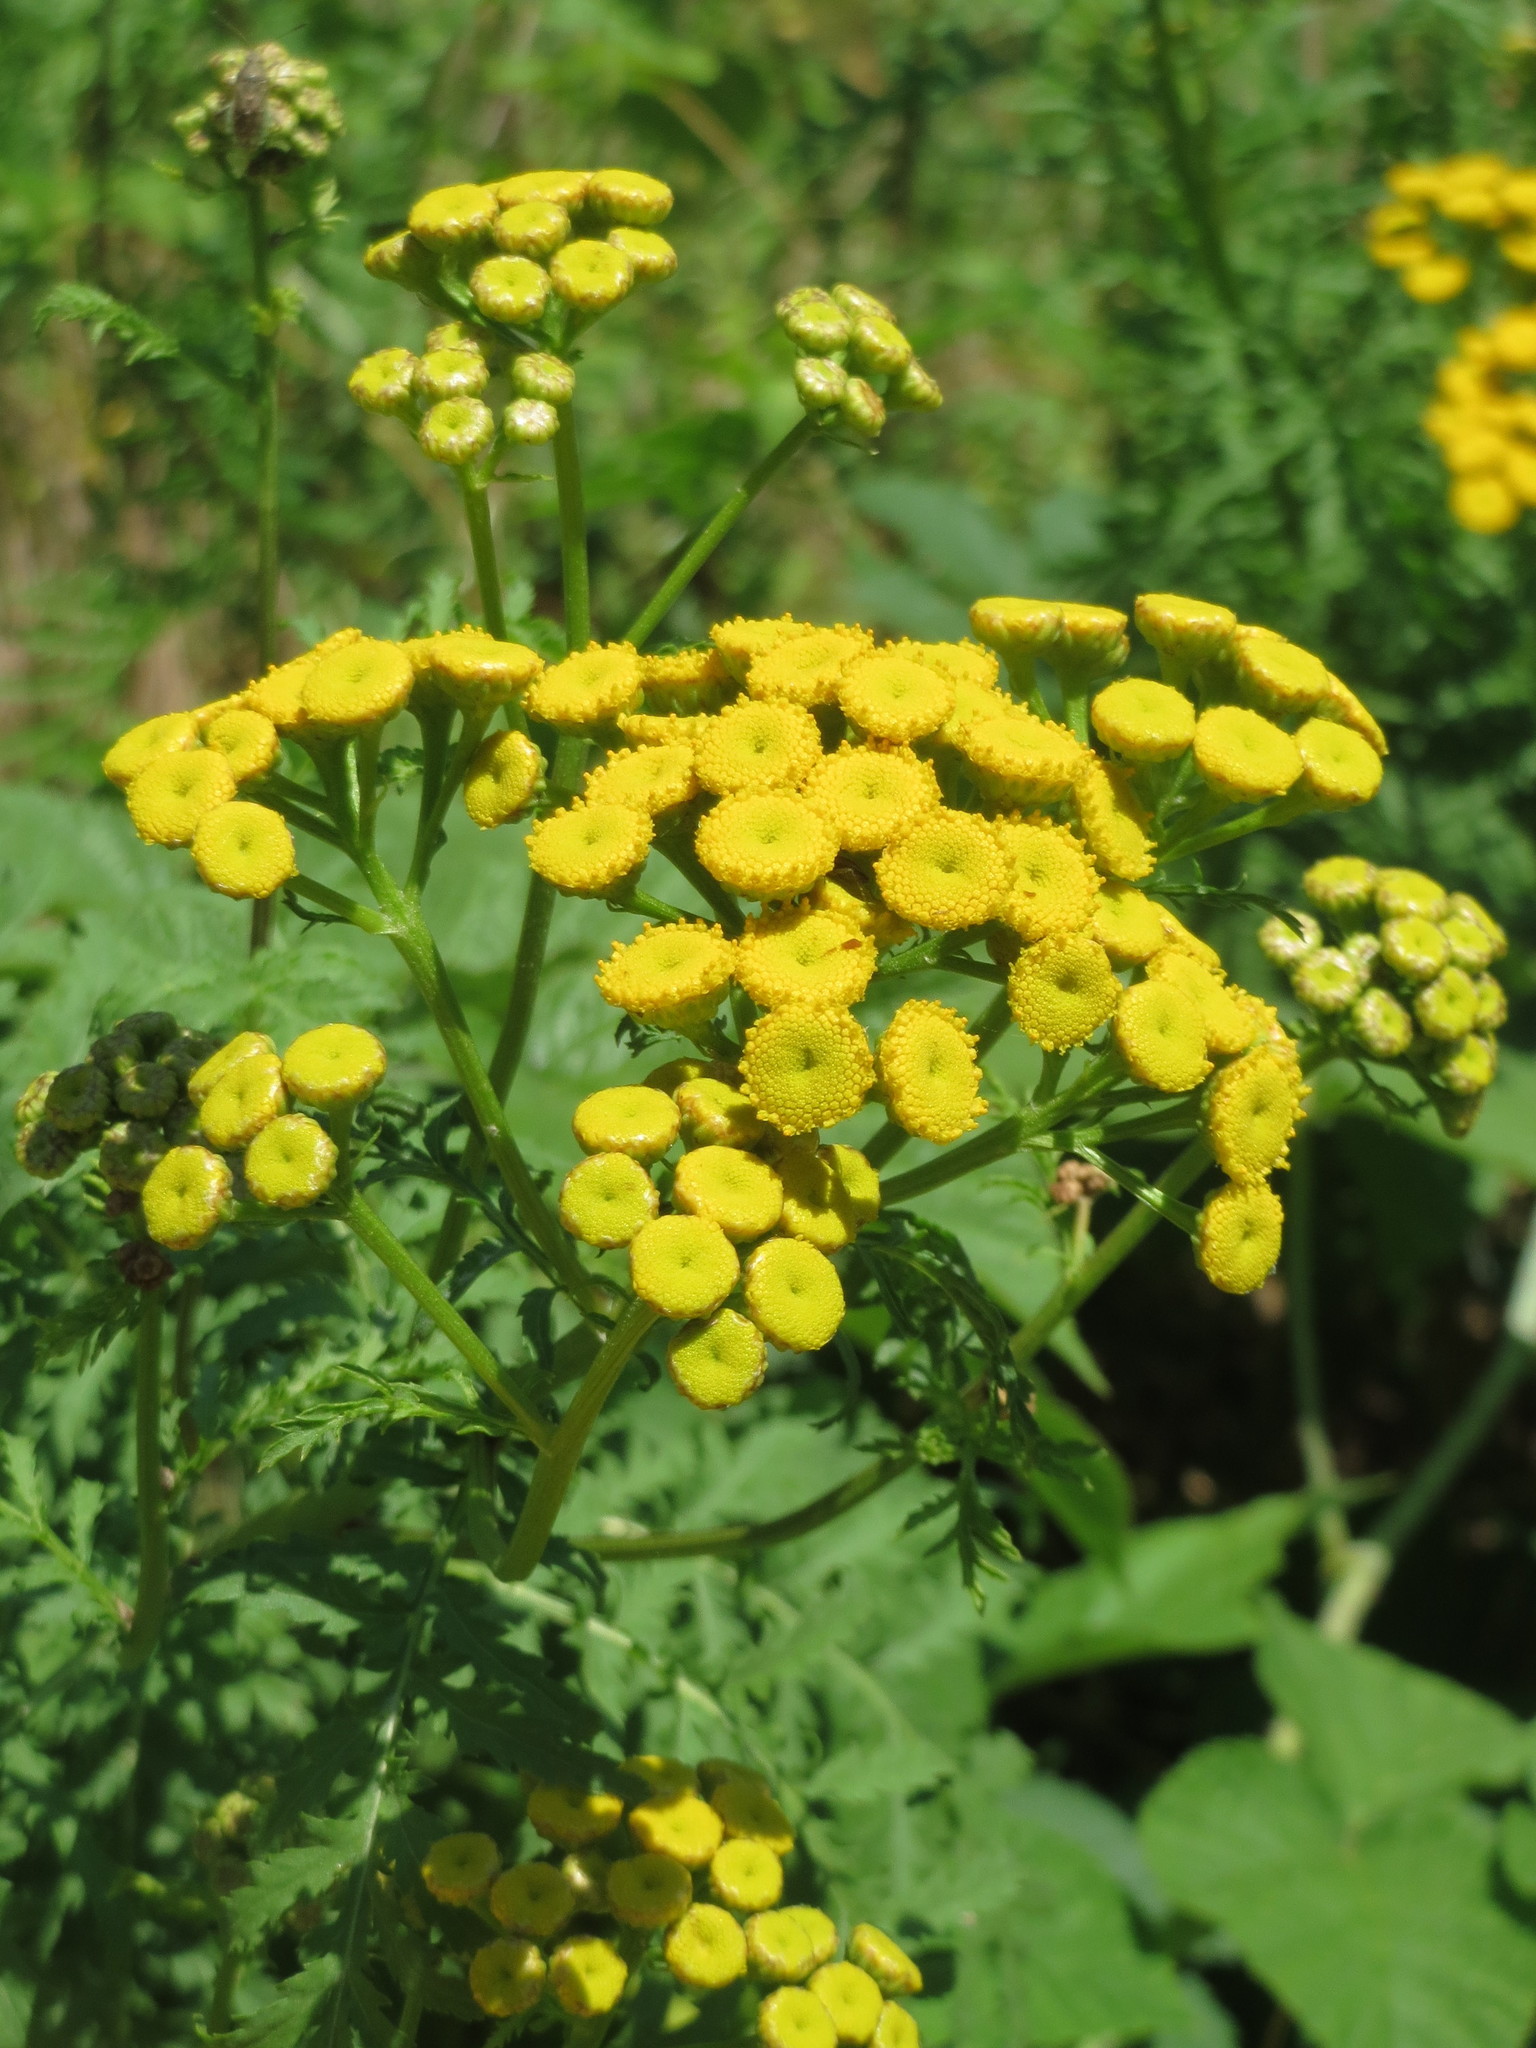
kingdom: Plantae
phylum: Tracheophyta
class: Magnoliopsida
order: Asterales
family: Asteraceae
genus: Tanacetum
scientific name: Tanacetum vulgare
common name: Common tansy
